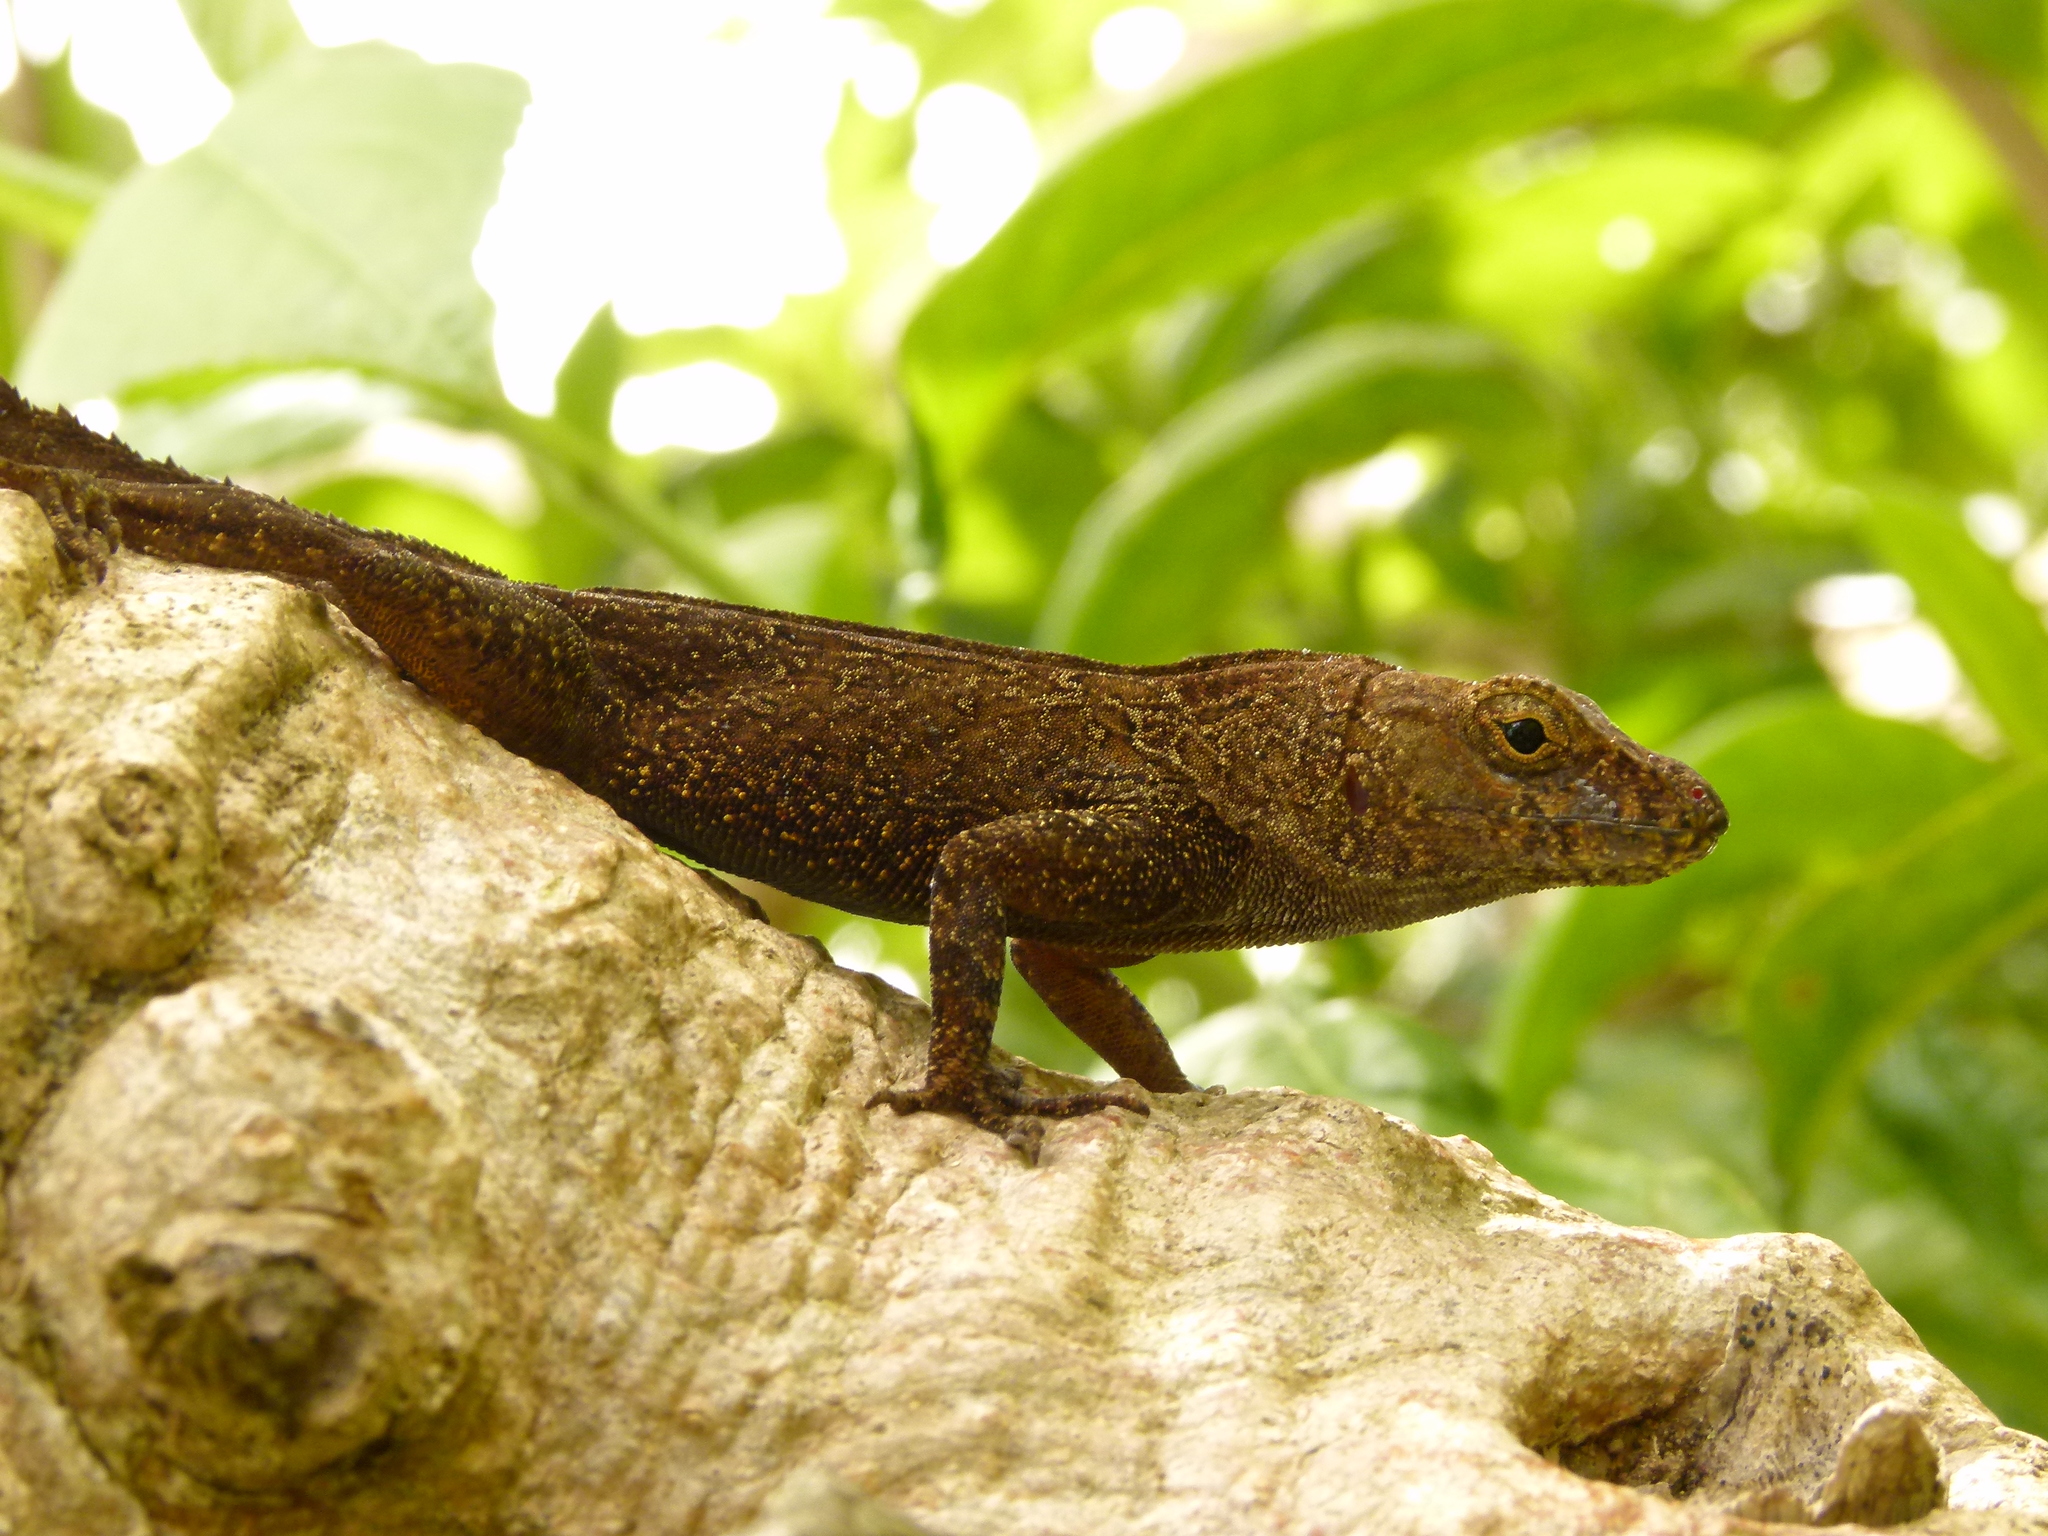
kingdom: Animalia
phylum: Chordata
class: Squamata
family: Dactyloidae
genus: Anolis
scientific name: Anolis cristatellus
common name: Crested anole
